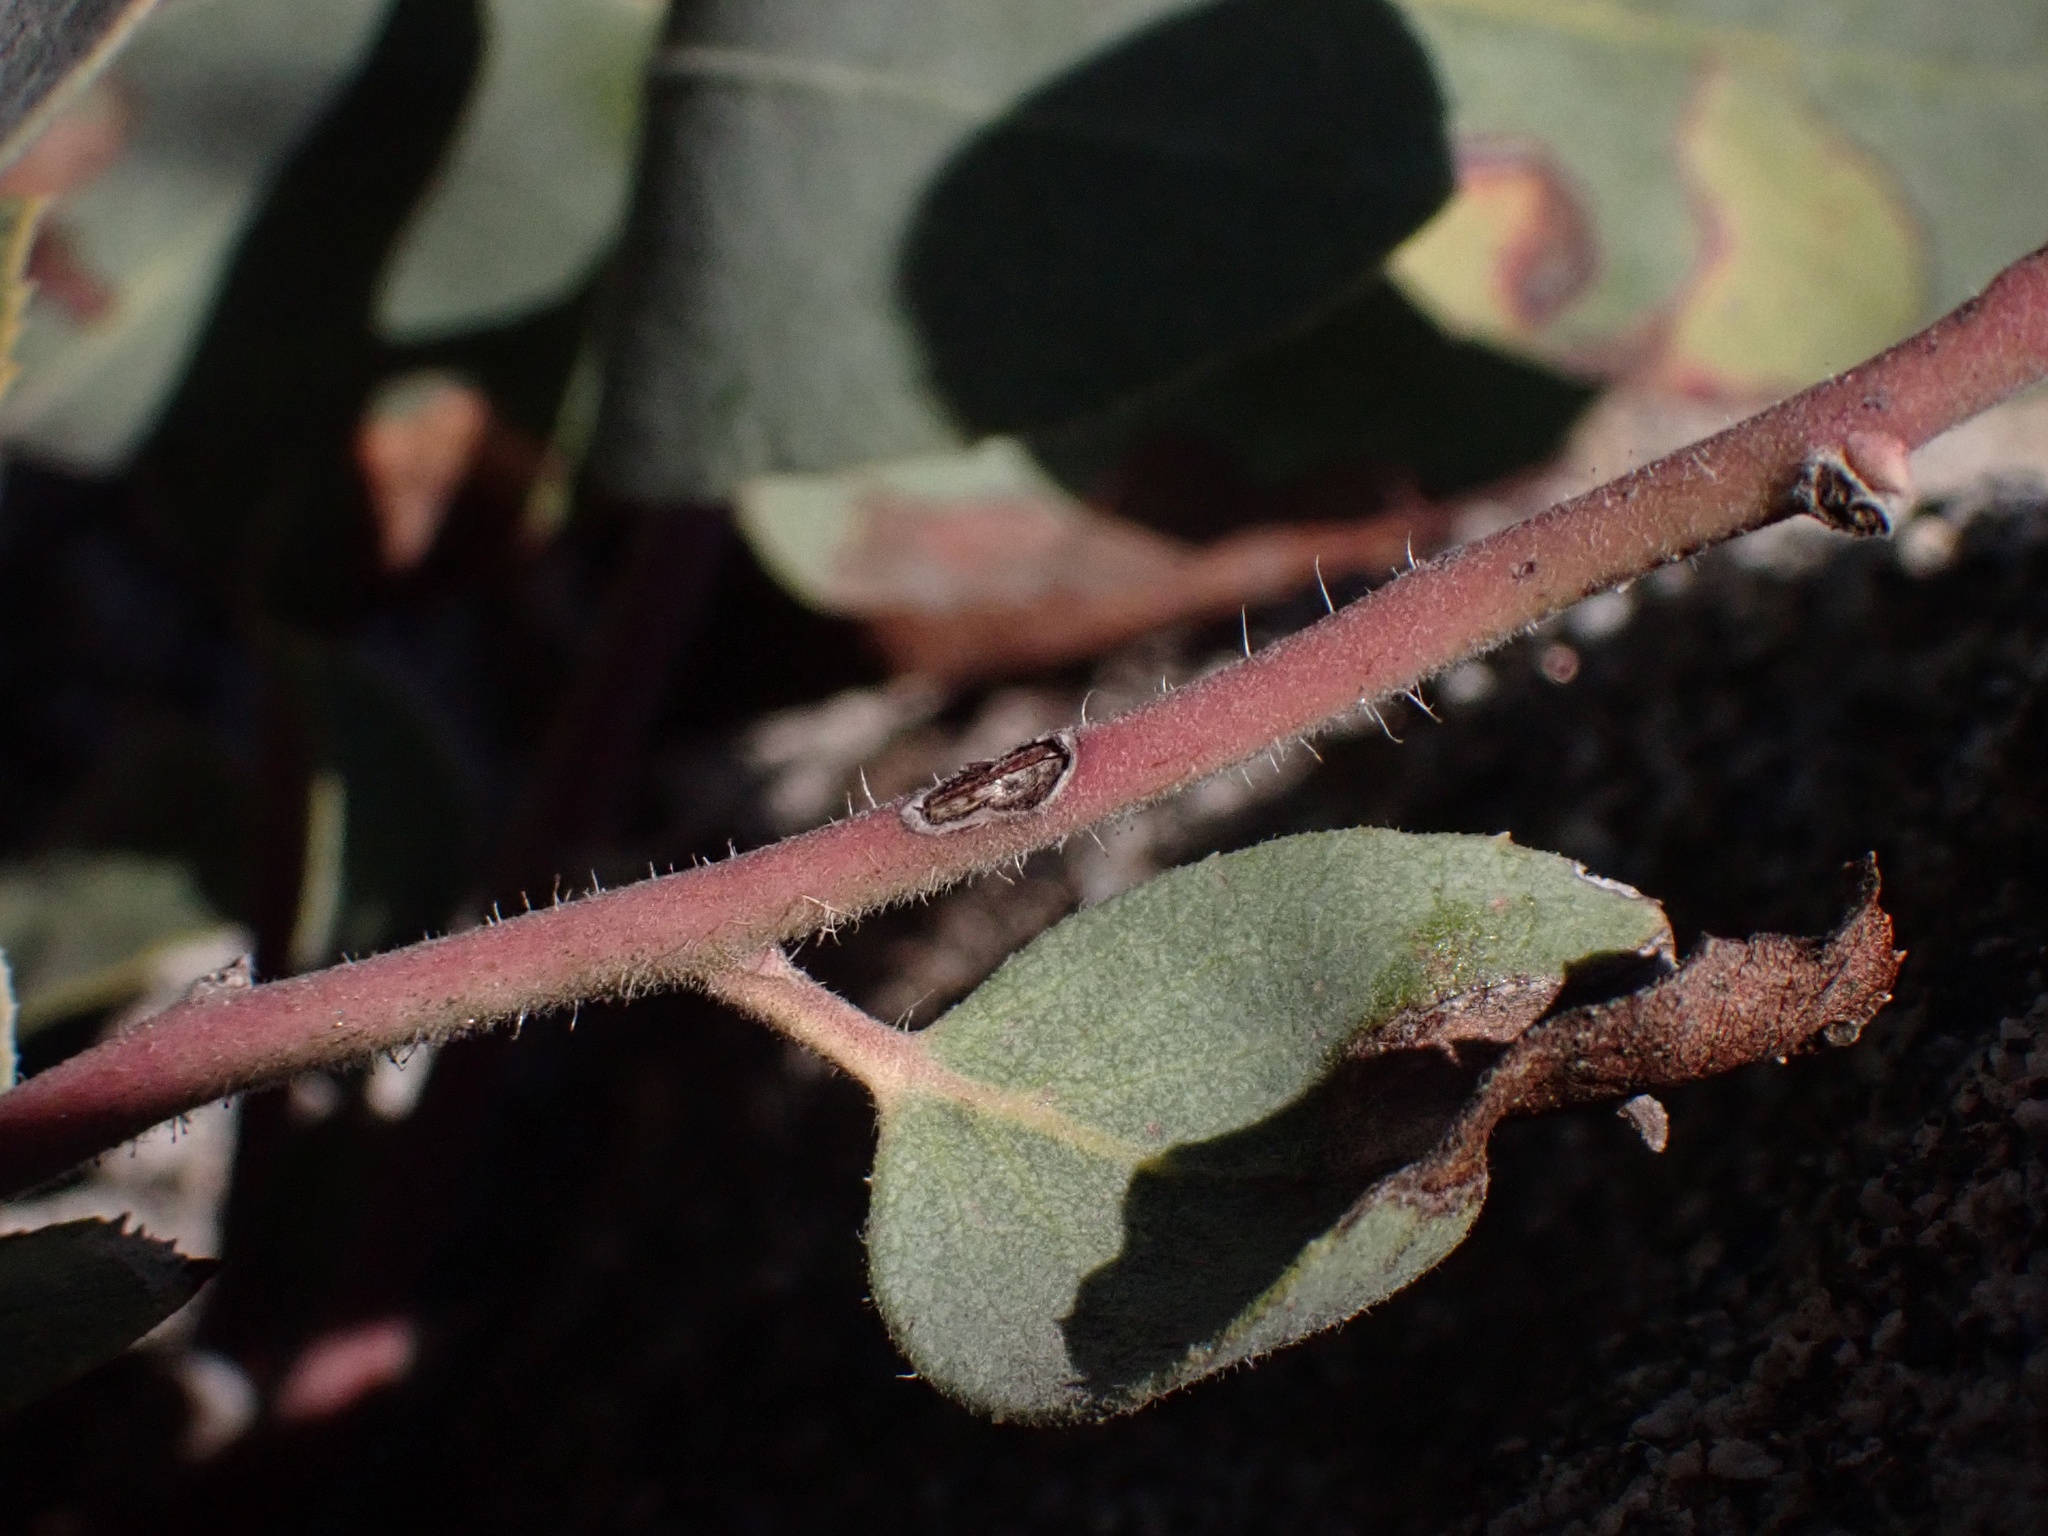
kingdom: Plantae
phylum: Tracheophyta
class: Magnoliopsida
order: Ericales
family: Ericaceae
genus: Arctostaphylos
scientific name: Arctostaphylos glandulosa
